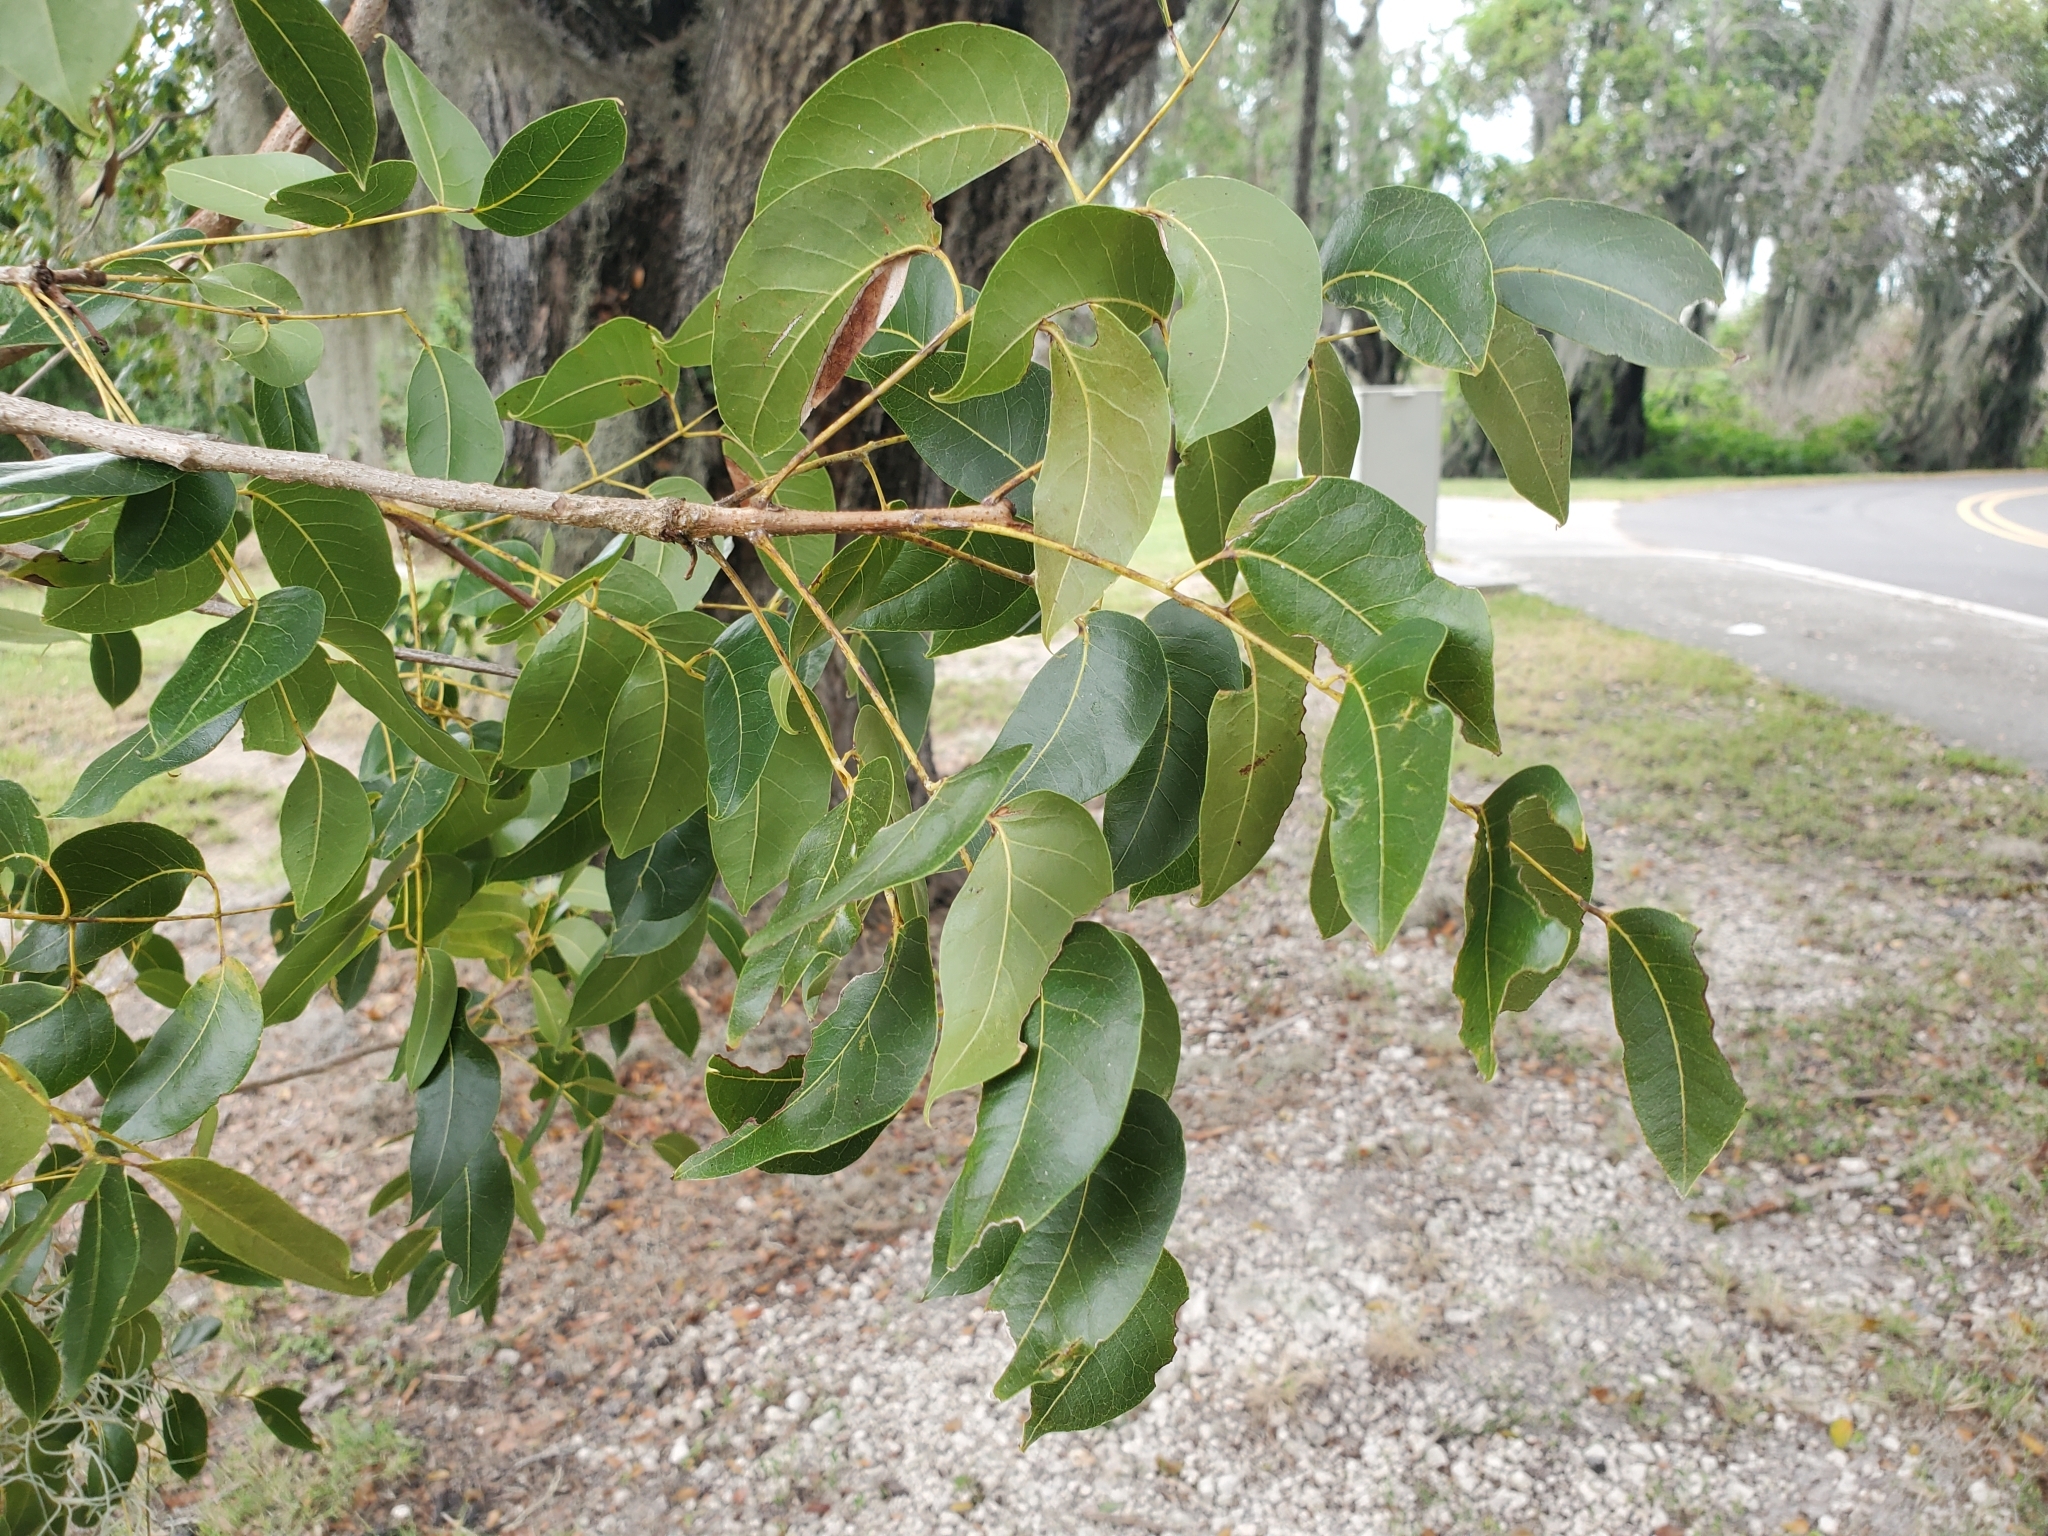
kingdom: Plantae
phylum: Tracheophyta
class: Magnoliopsida
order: Sapindales
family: Meliaceae
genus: Swietenia
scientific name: Swietenia mahagoni
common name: West indian mahogany
